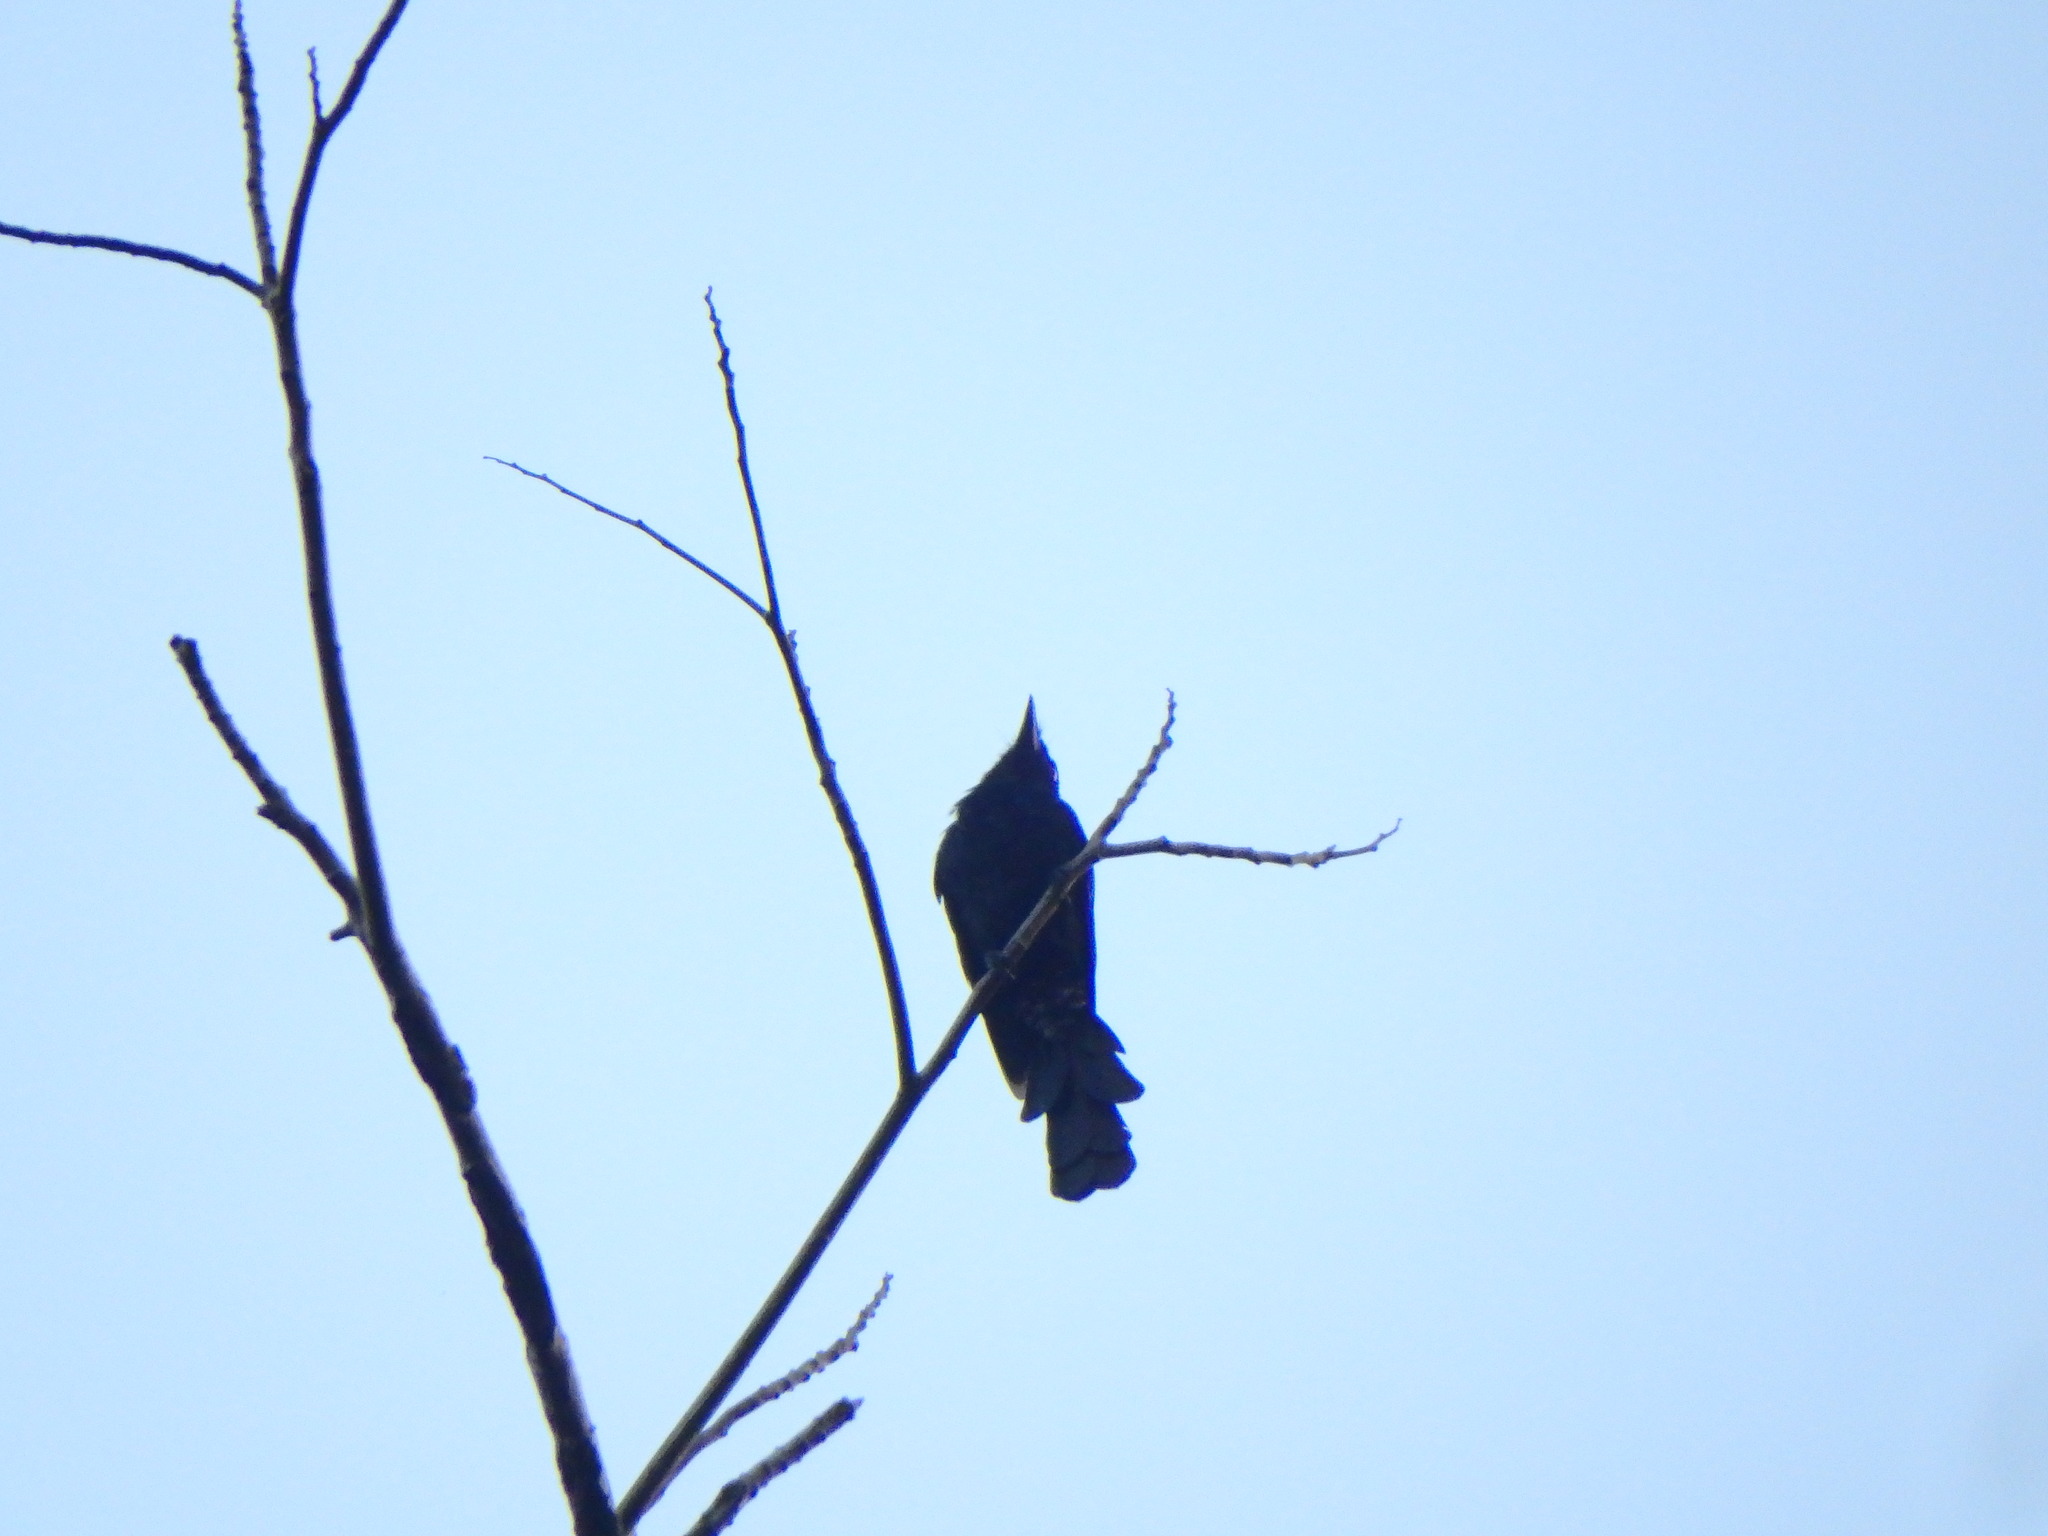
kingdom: Animalia
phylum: Chordata
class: Aves
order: Passeriformes
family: Dicruridae
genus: Dicrurus
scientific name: Dicrurus paradiseus
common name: Greater racket-tailed drongo
